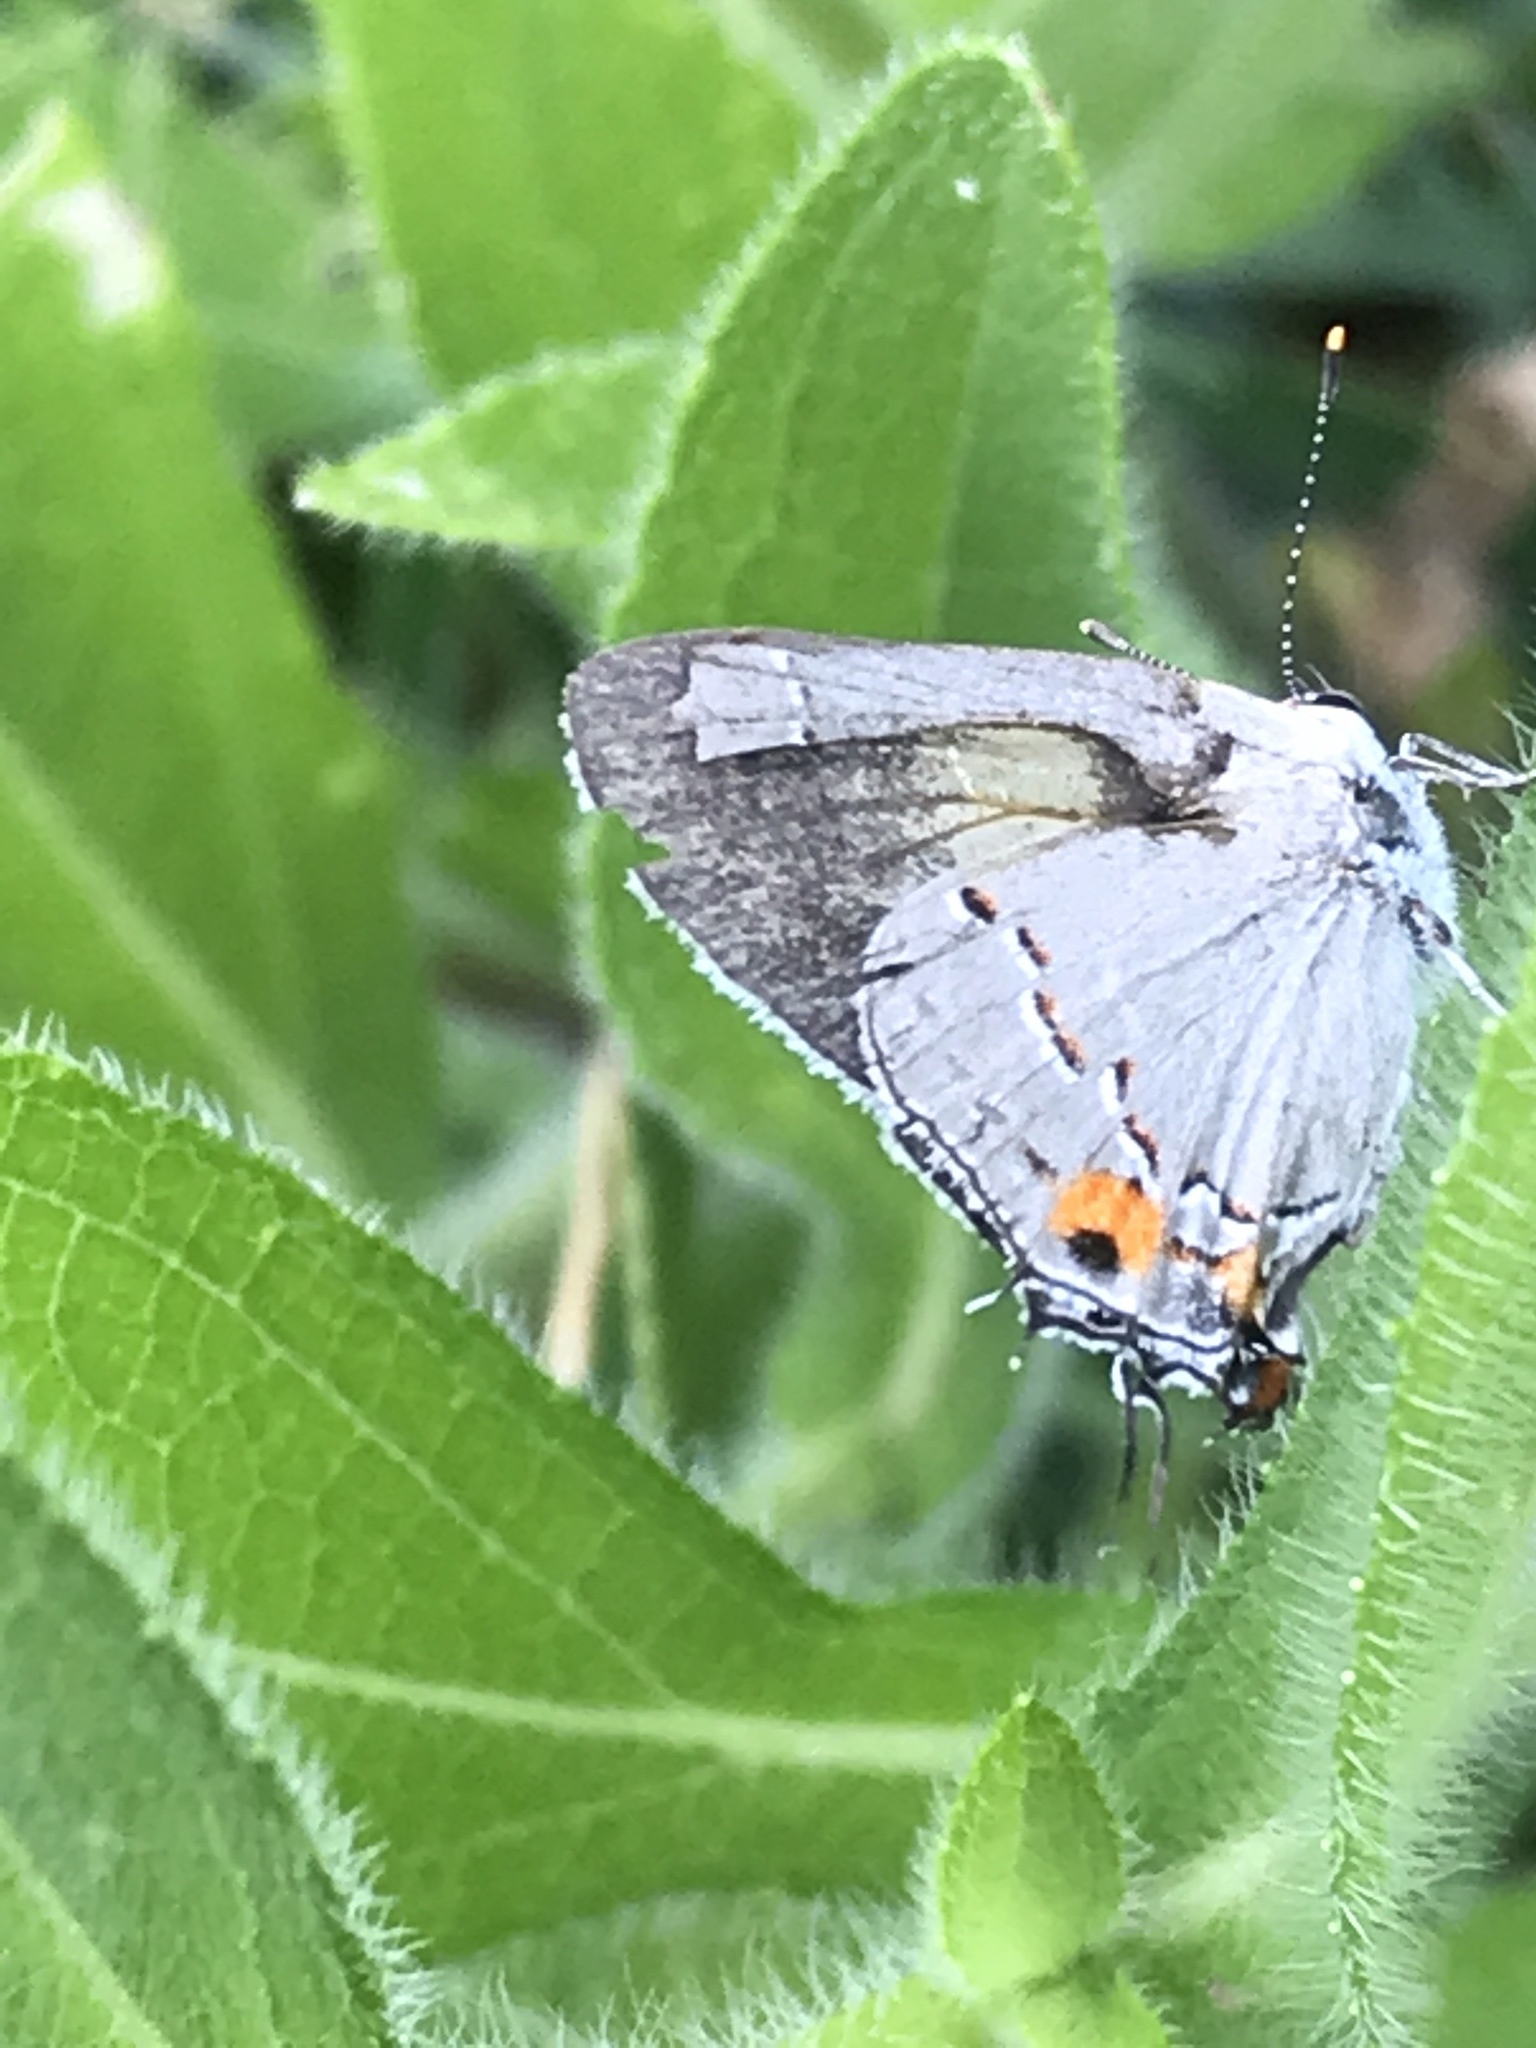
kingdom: Animalia
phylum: Arthropoda
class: Insecta
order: Lepidoptera
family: Lycaenidae
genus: Strymon
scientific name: Strymon melinus
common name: Gray hairstreak
